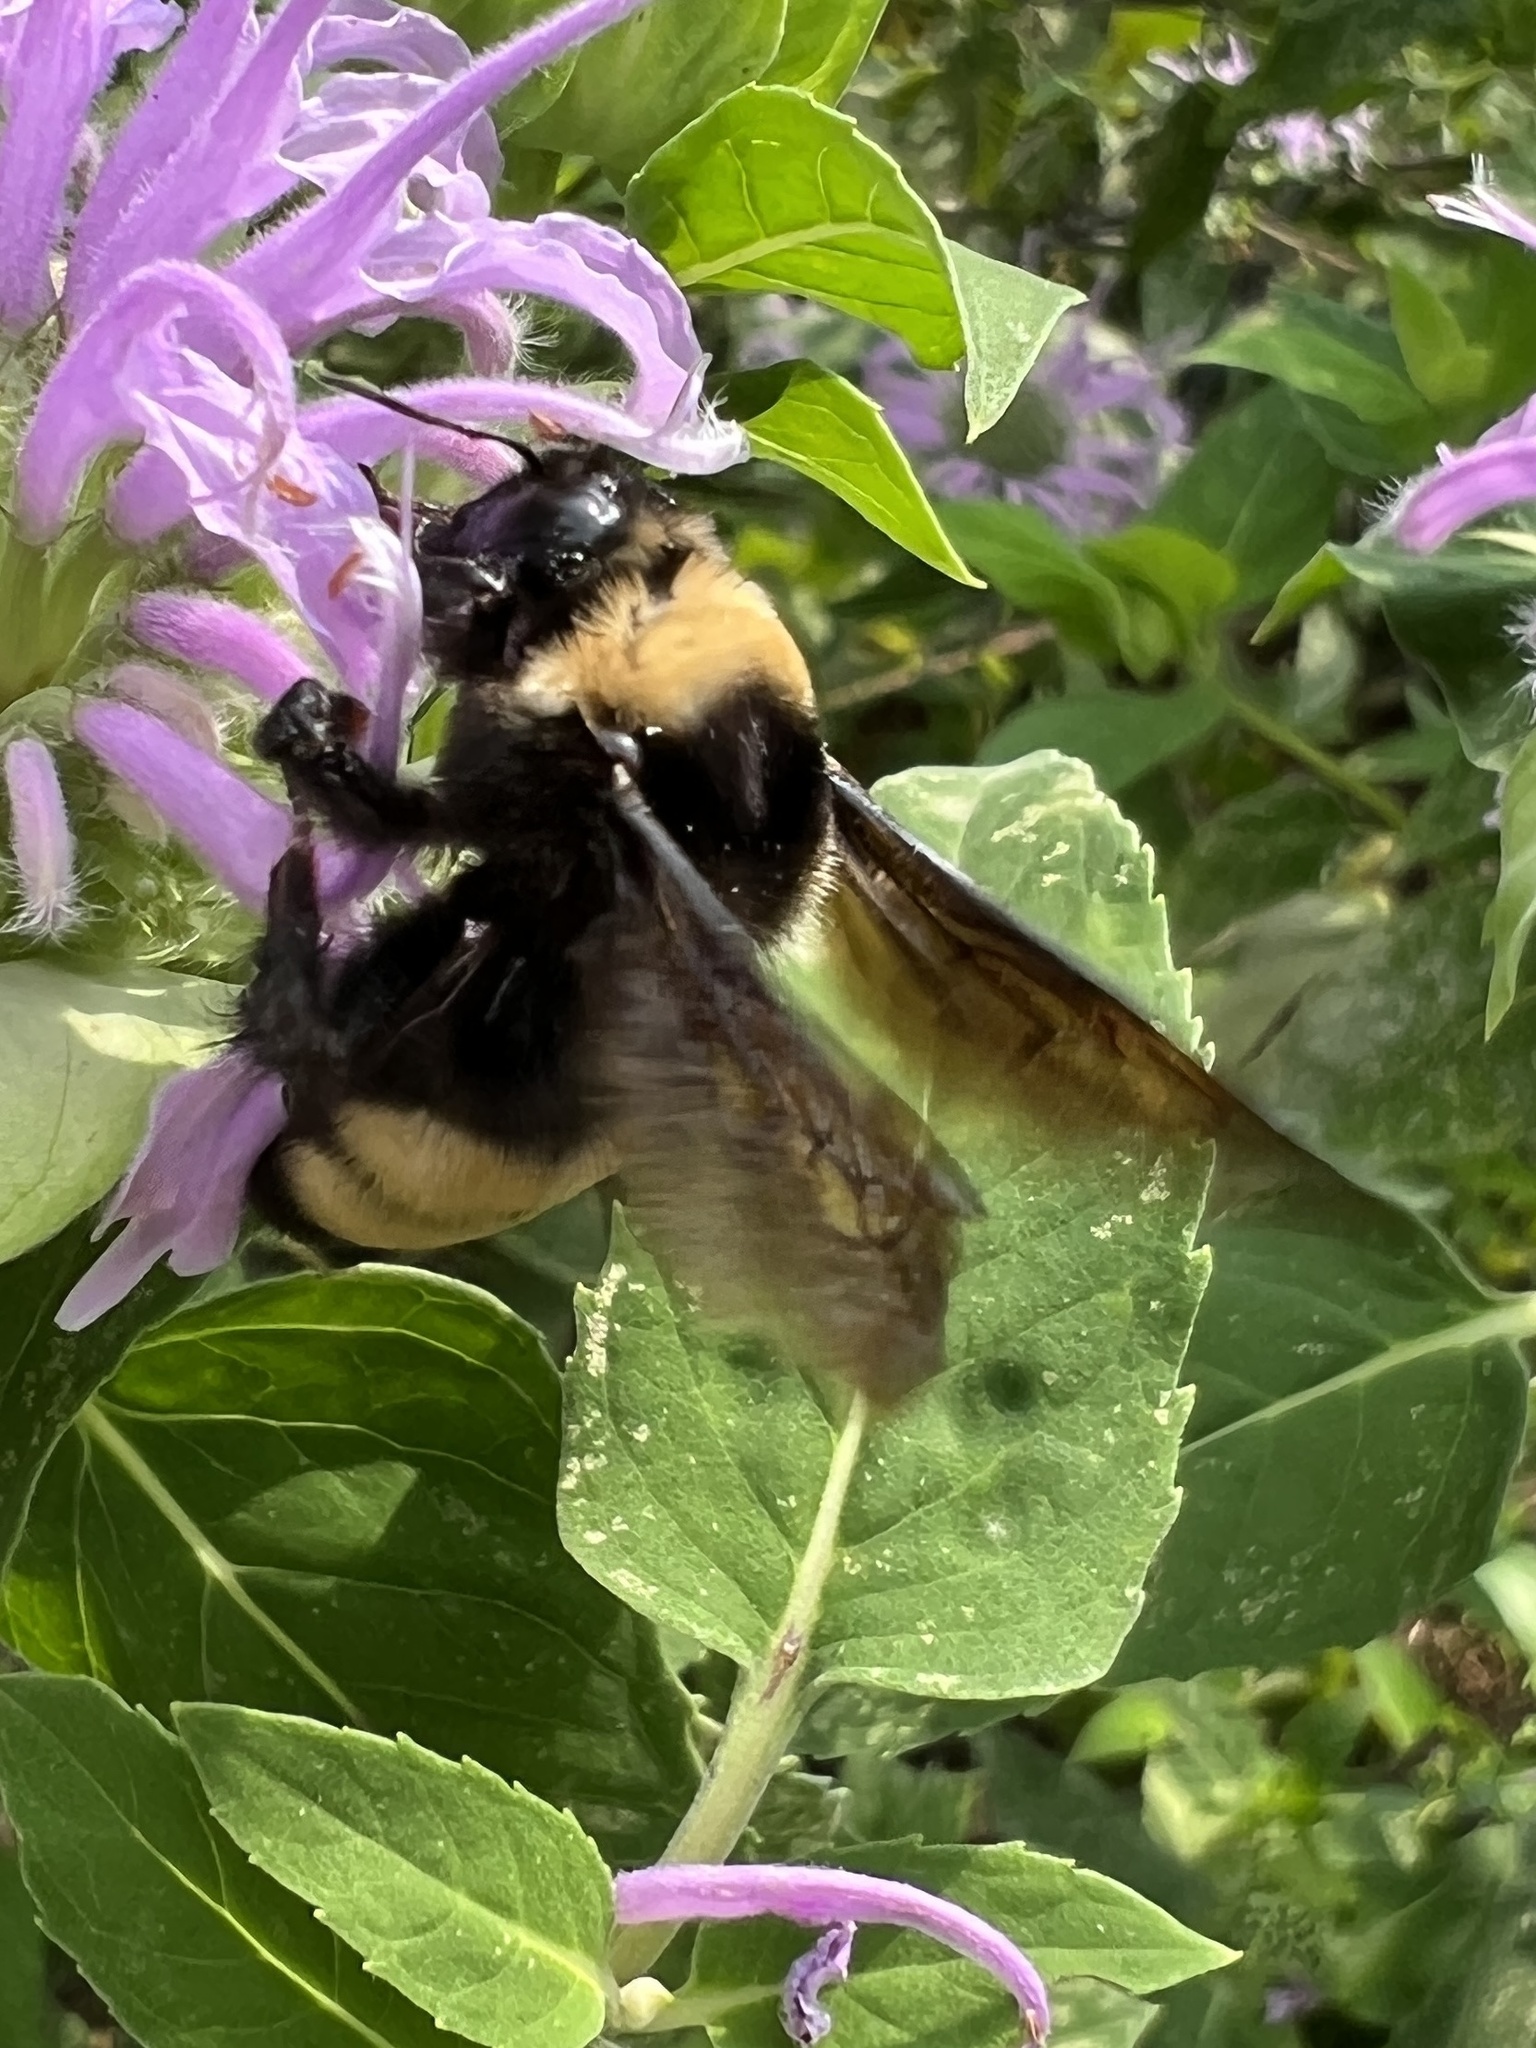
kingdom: Animalia
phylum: Arthropoda
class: Insecta
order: Hymenoptera
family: Apidae
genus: Bombus
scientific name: Bombus auricomus
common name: Black and gold bumble bee
